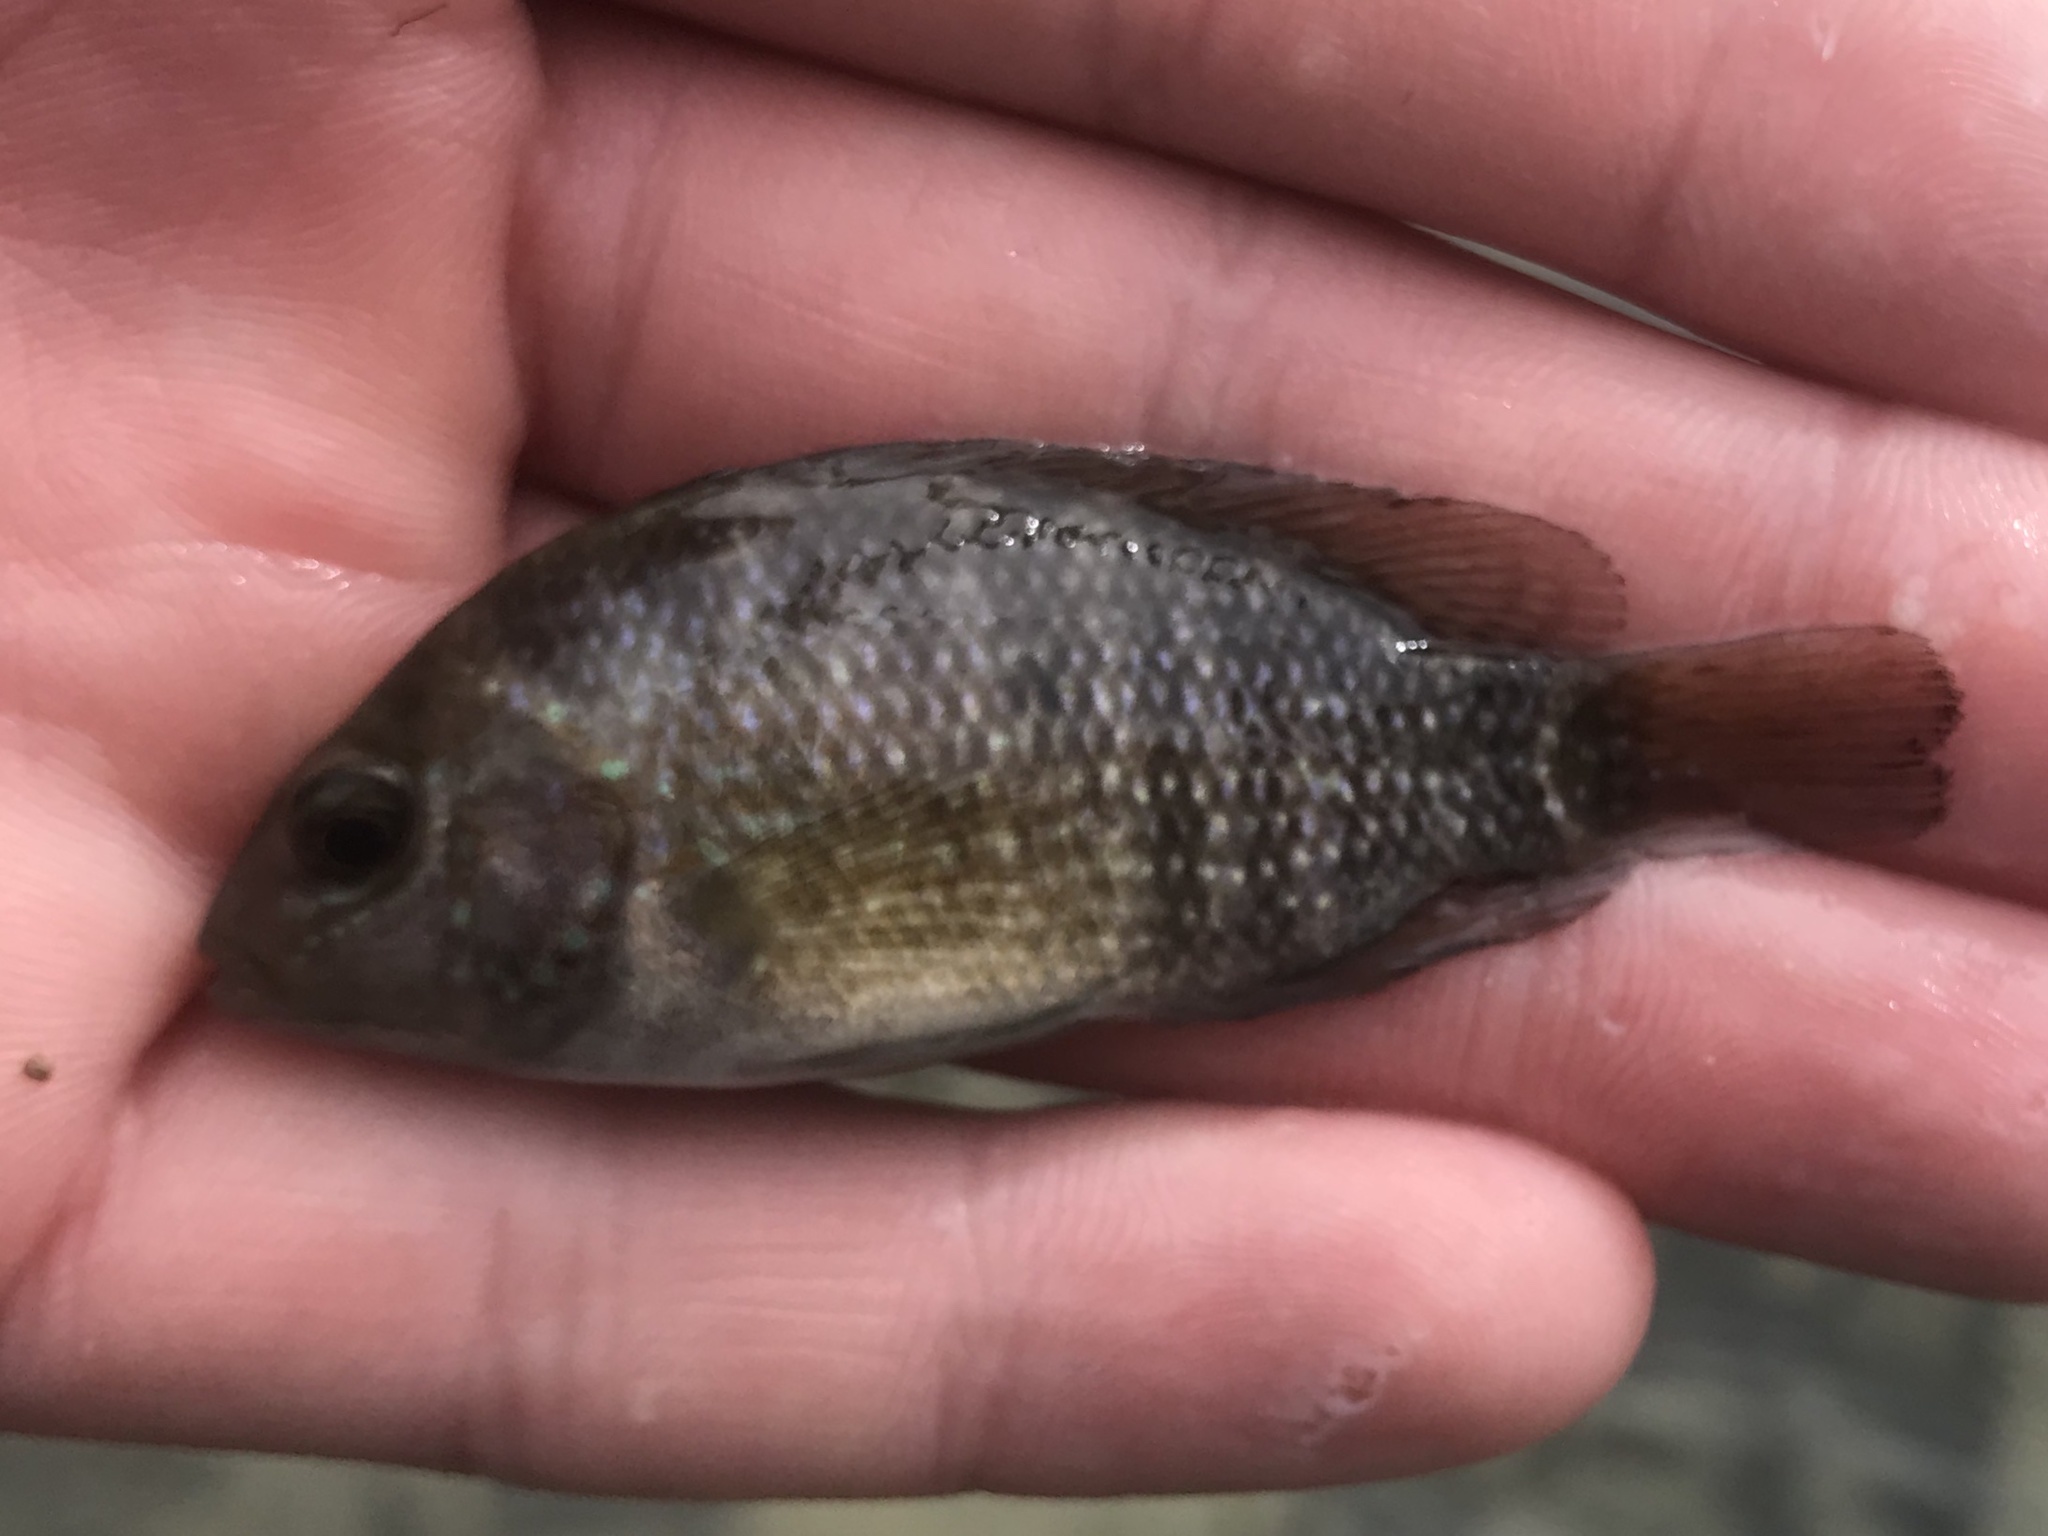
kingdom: Animalia
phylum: Chordata
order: Perciformes
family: Cichlidae
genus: Herichthys
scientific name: Herichthys cyanoguttatus
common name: Rio grande cichlid
